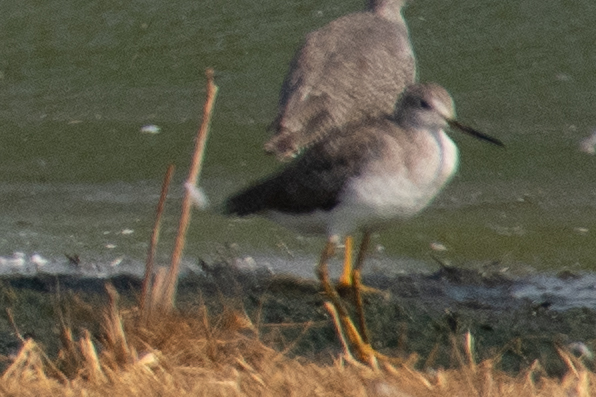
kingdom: Animalia
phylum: Chordata
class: Aves
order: Charadriiformes
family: Scolopacidae
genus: Tringa
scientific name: Tringa melanoleuca
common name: Greater yellowlegs
